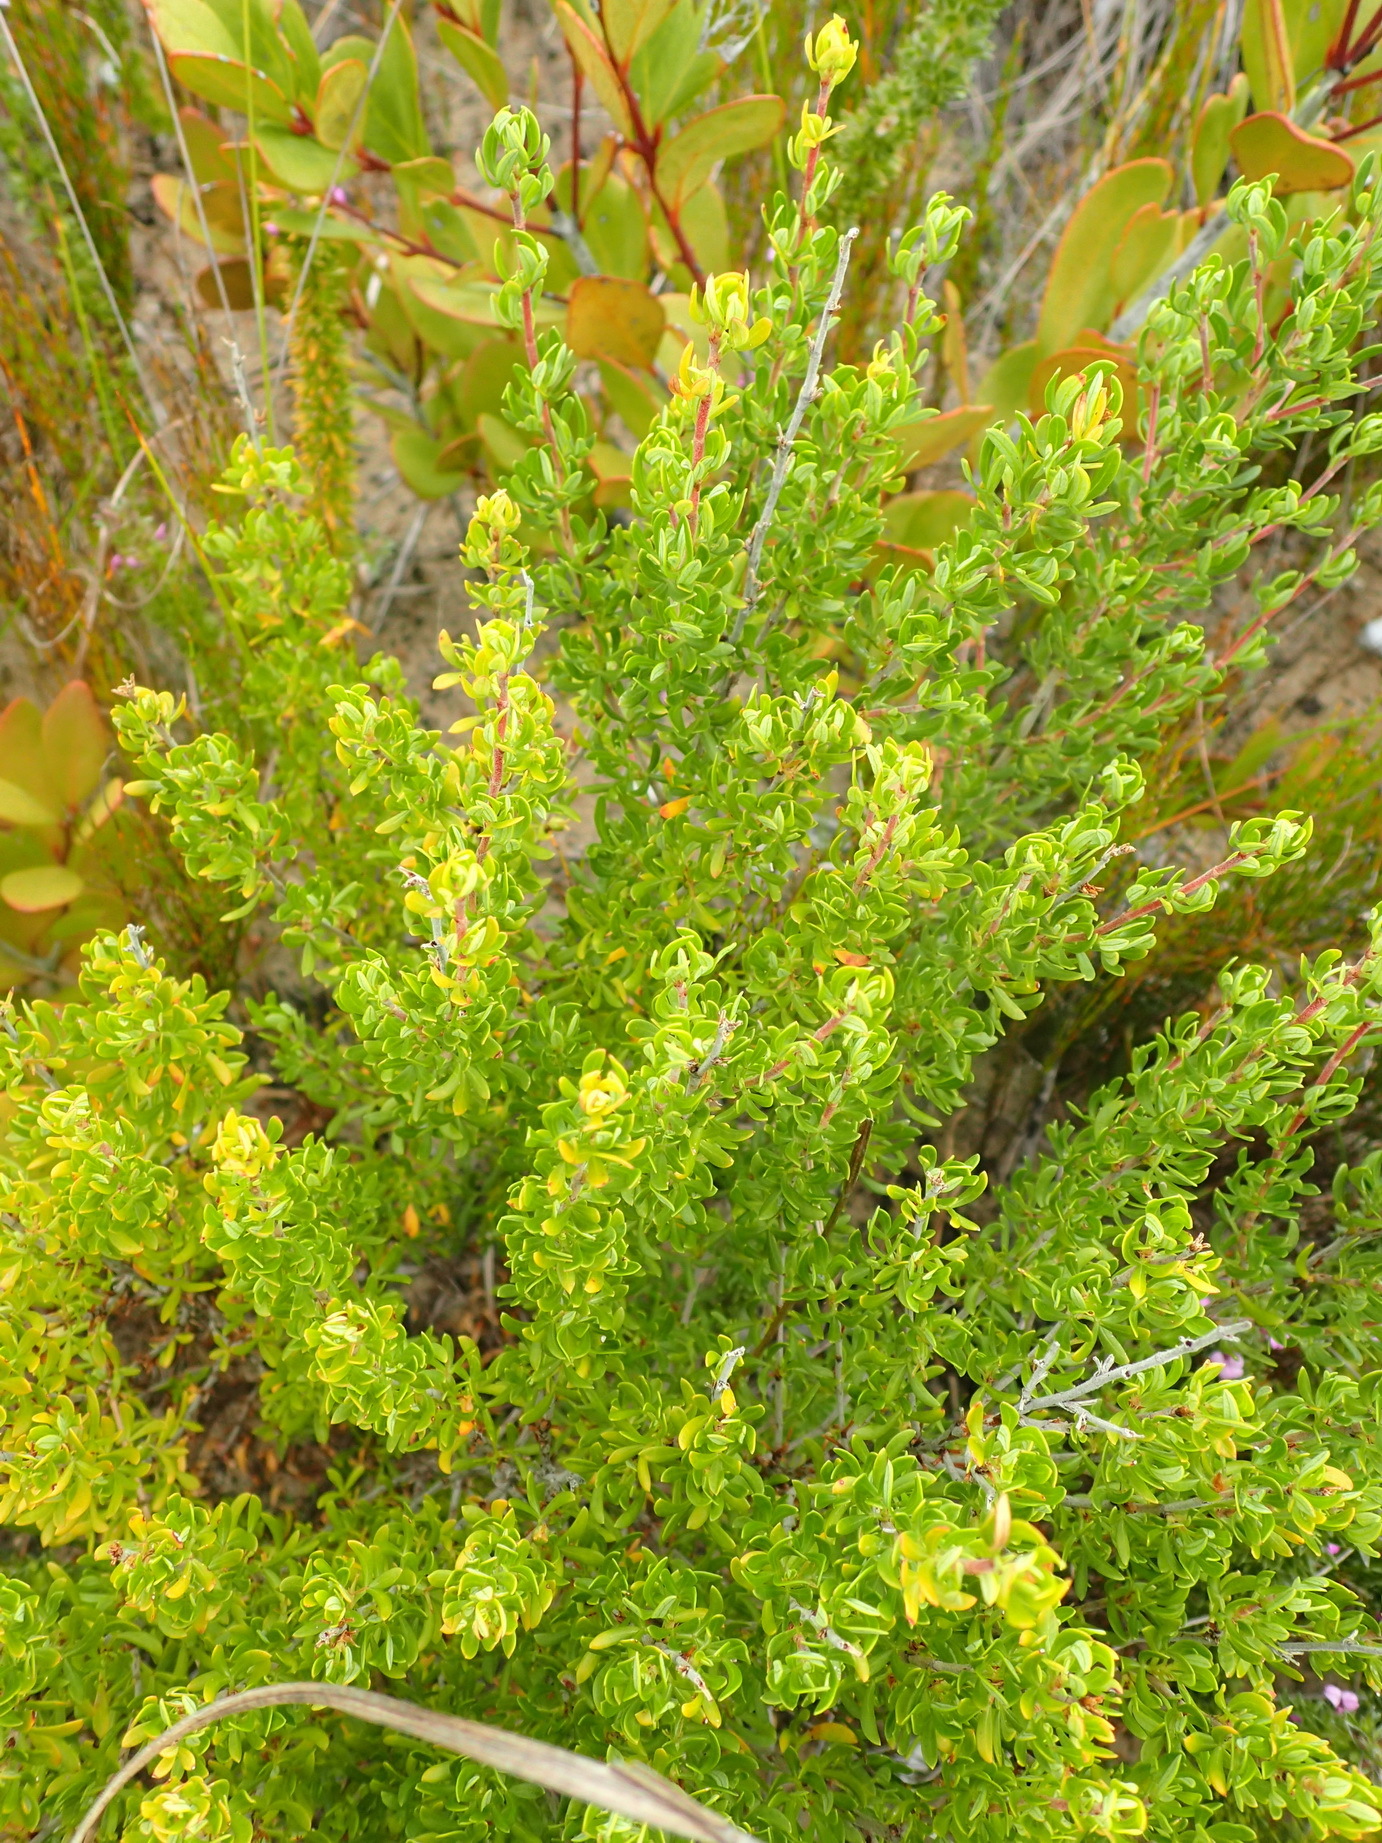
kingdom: Plantae
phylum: Tracheophyta
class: Magnoliopsida
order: Rosales
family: Rosaceae
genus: Cliffortia
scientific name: Cliffortia falcata
